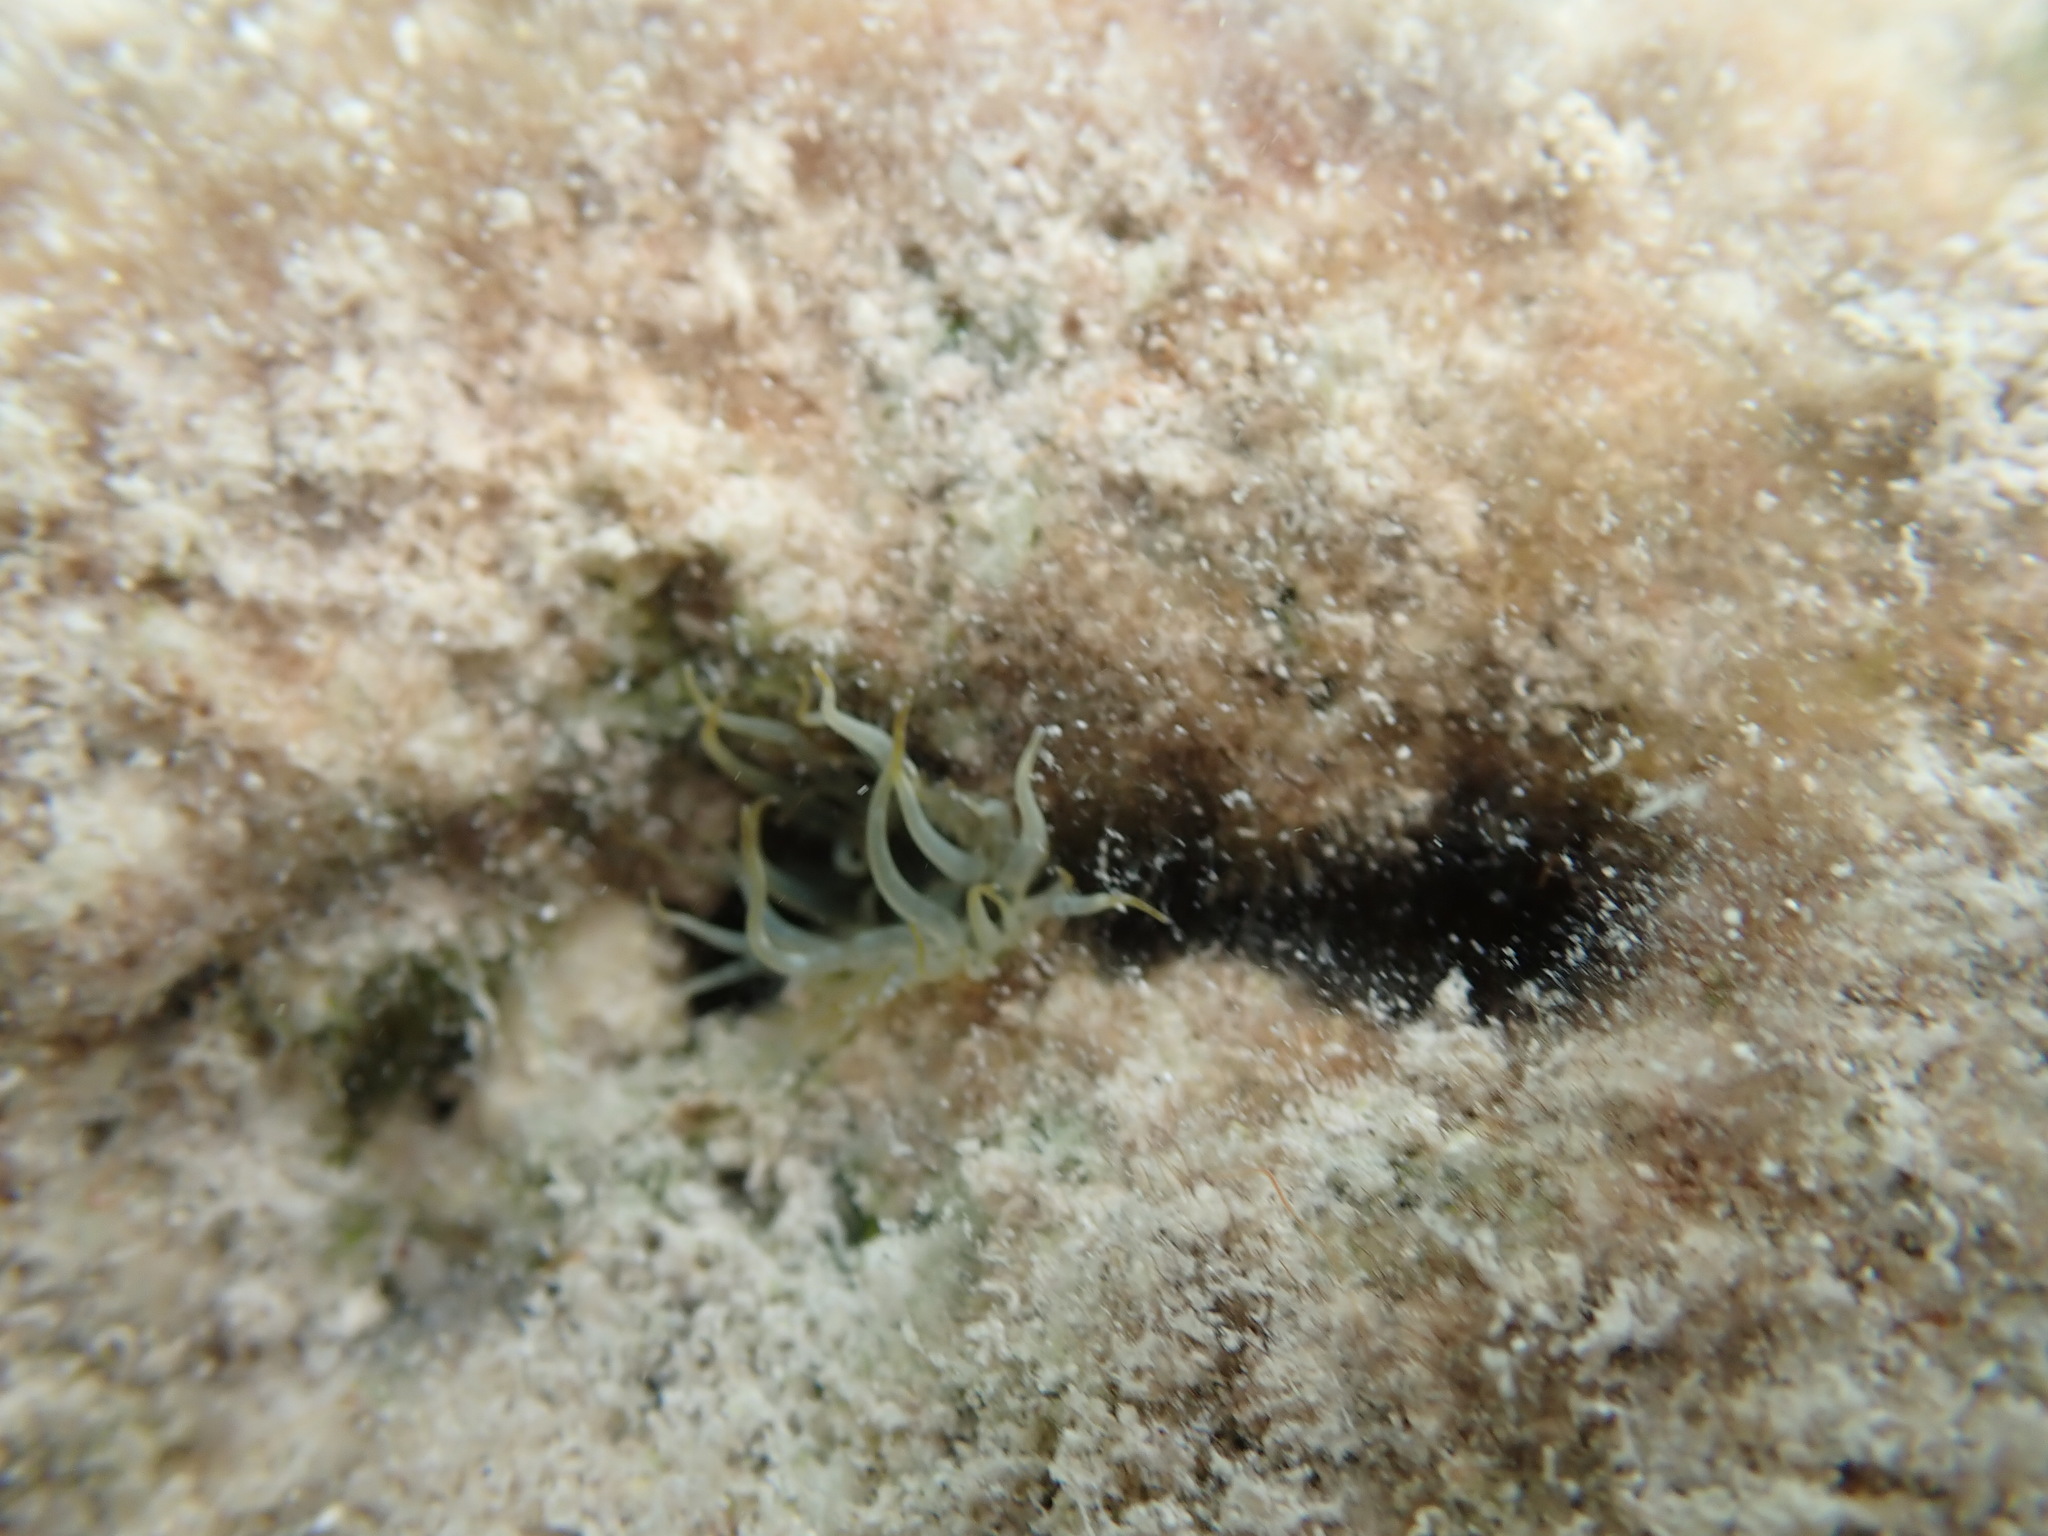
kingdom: Animalia
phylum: Cnidaria
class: Anthozoa
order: Actiniaria
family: Aiptasiidae
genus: Exaiptasia
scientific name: Exaiptasia diaphana
